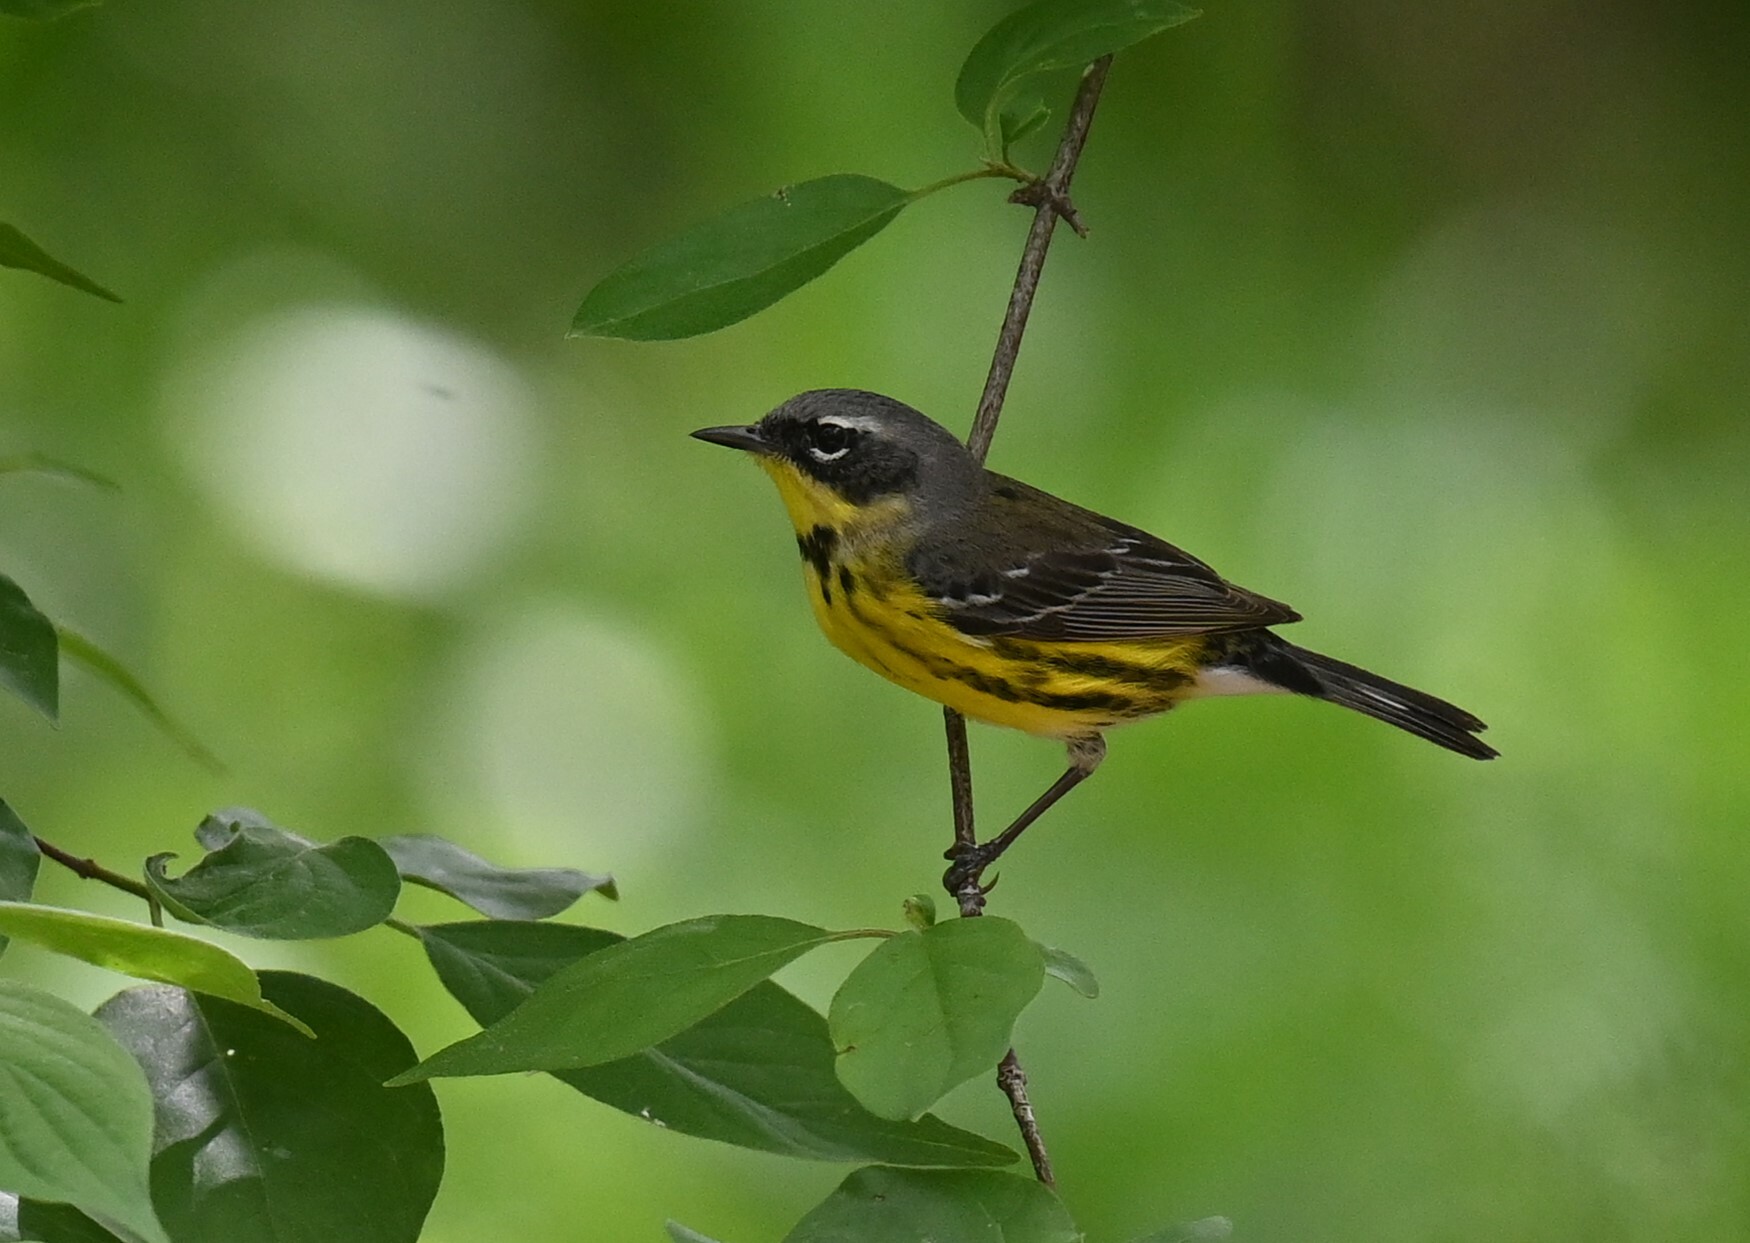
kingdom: Animalia
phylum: Chordata
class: Aves
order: Passeriformes
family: Parulidae
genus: Setophaga
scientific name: Setophaga magnolia
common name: Magnolia warbler
